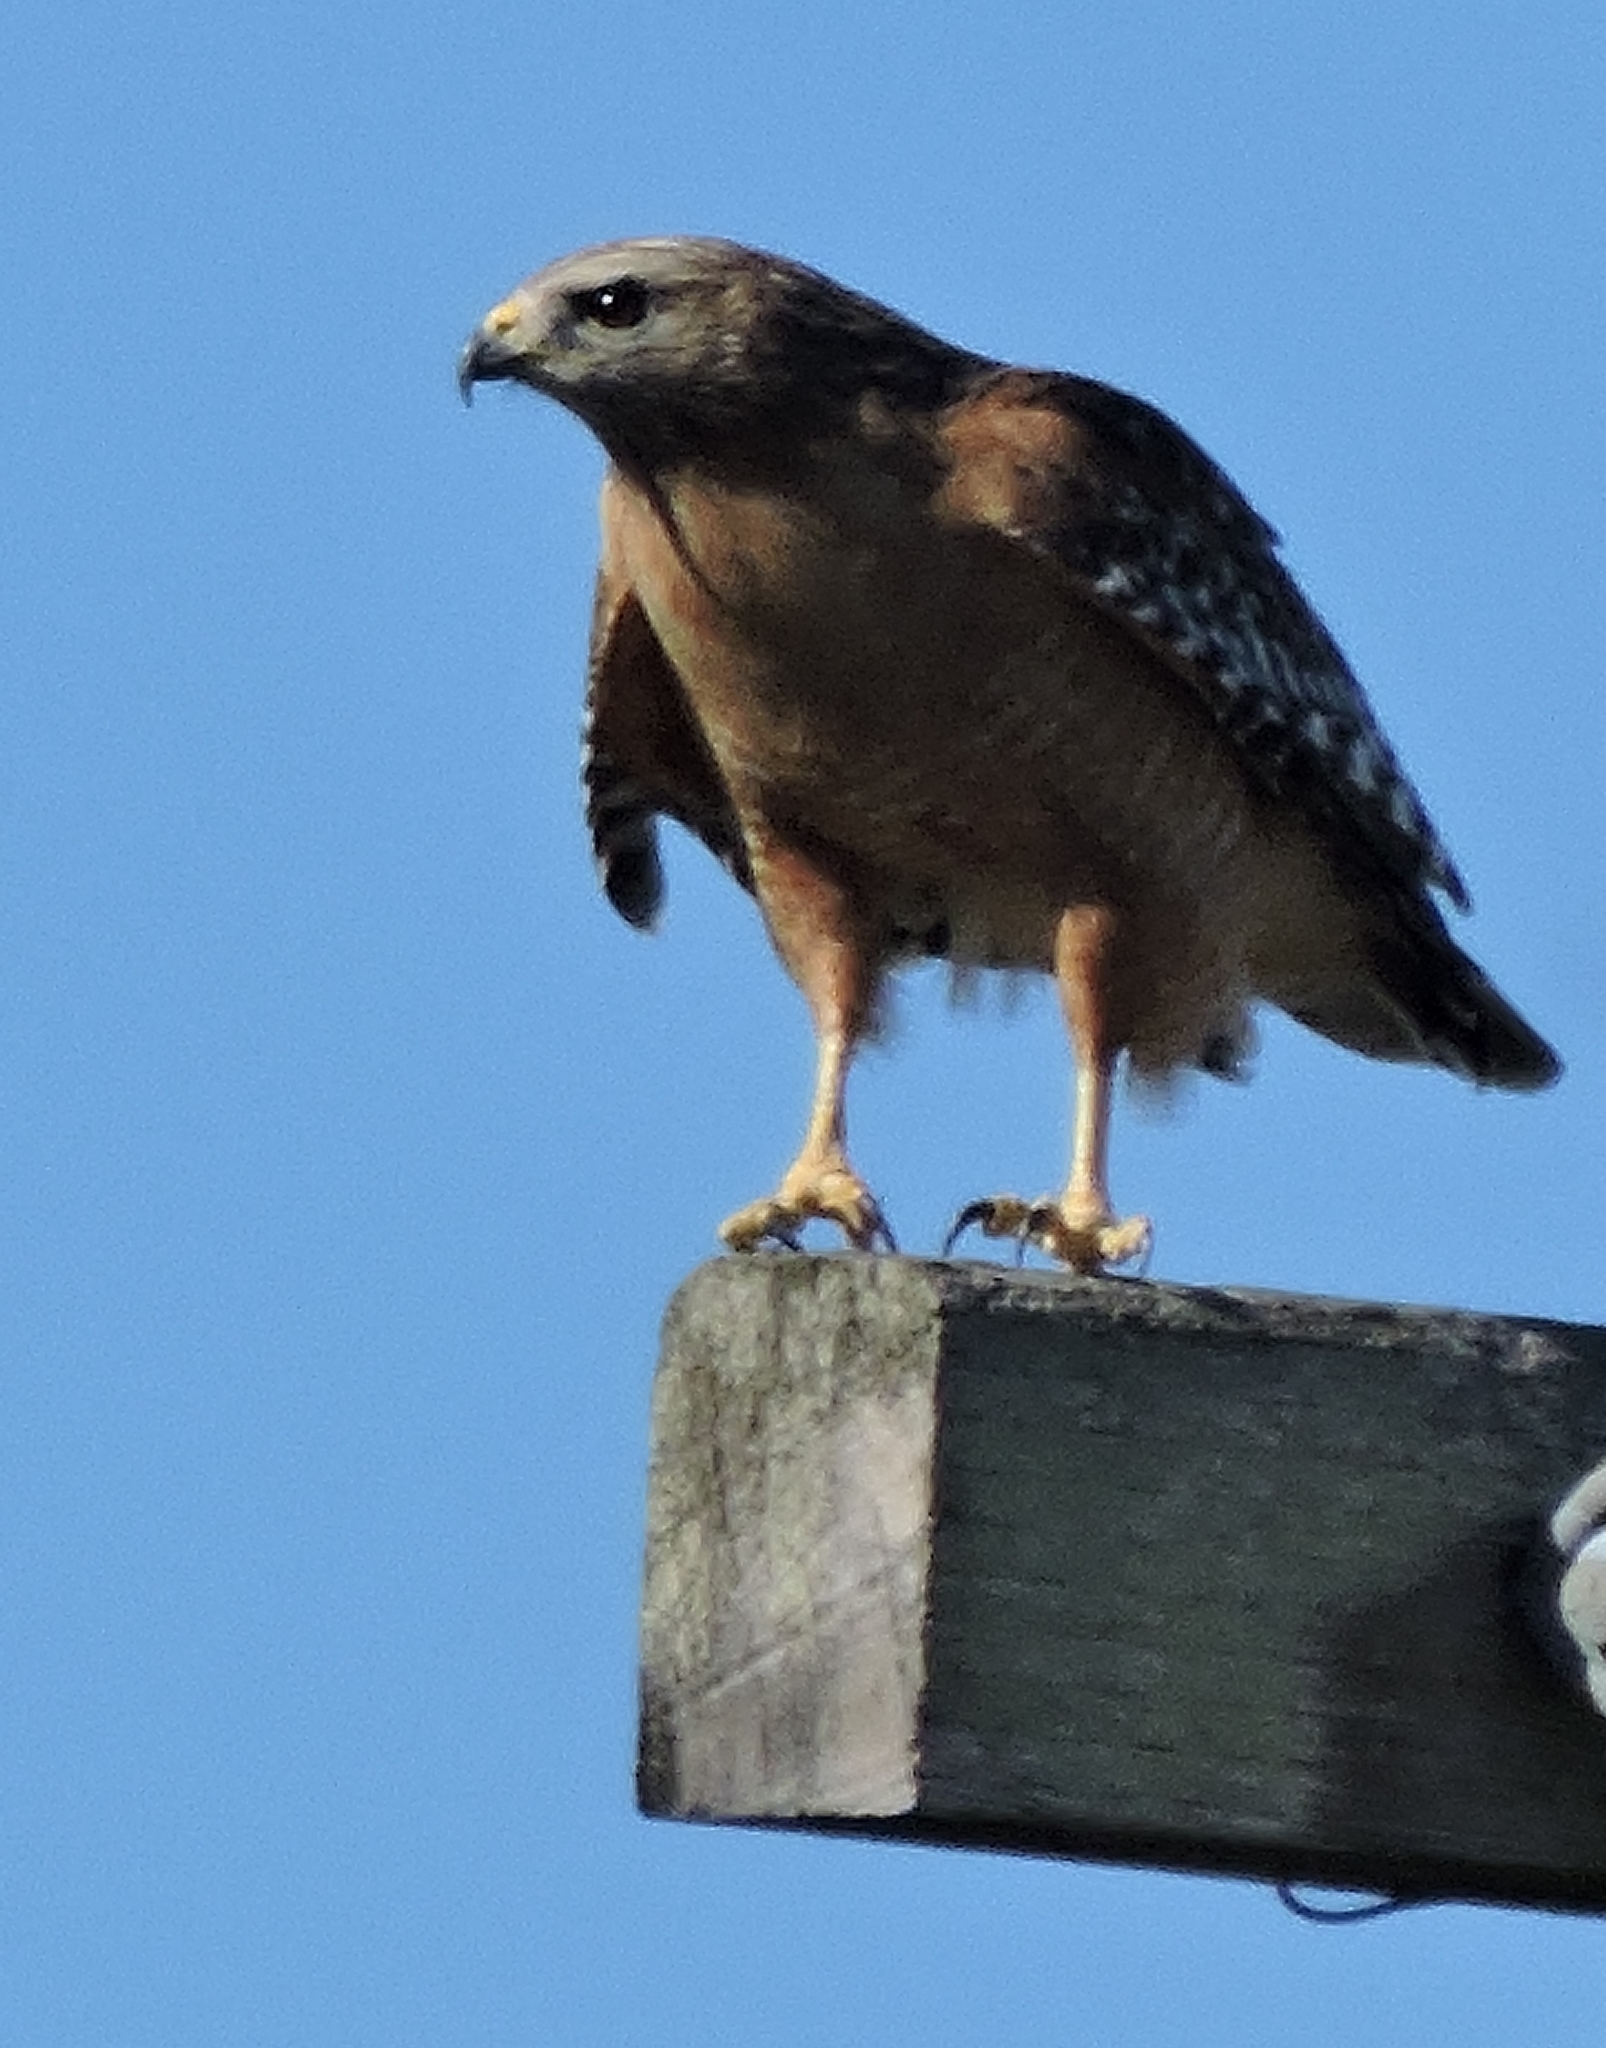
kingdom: Animalia
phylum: Chordata
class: Aves
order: Accipitriformes
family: Accipitridae
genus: Buteo
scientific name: Buteo lineatus
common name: Red-shouldered hawk
